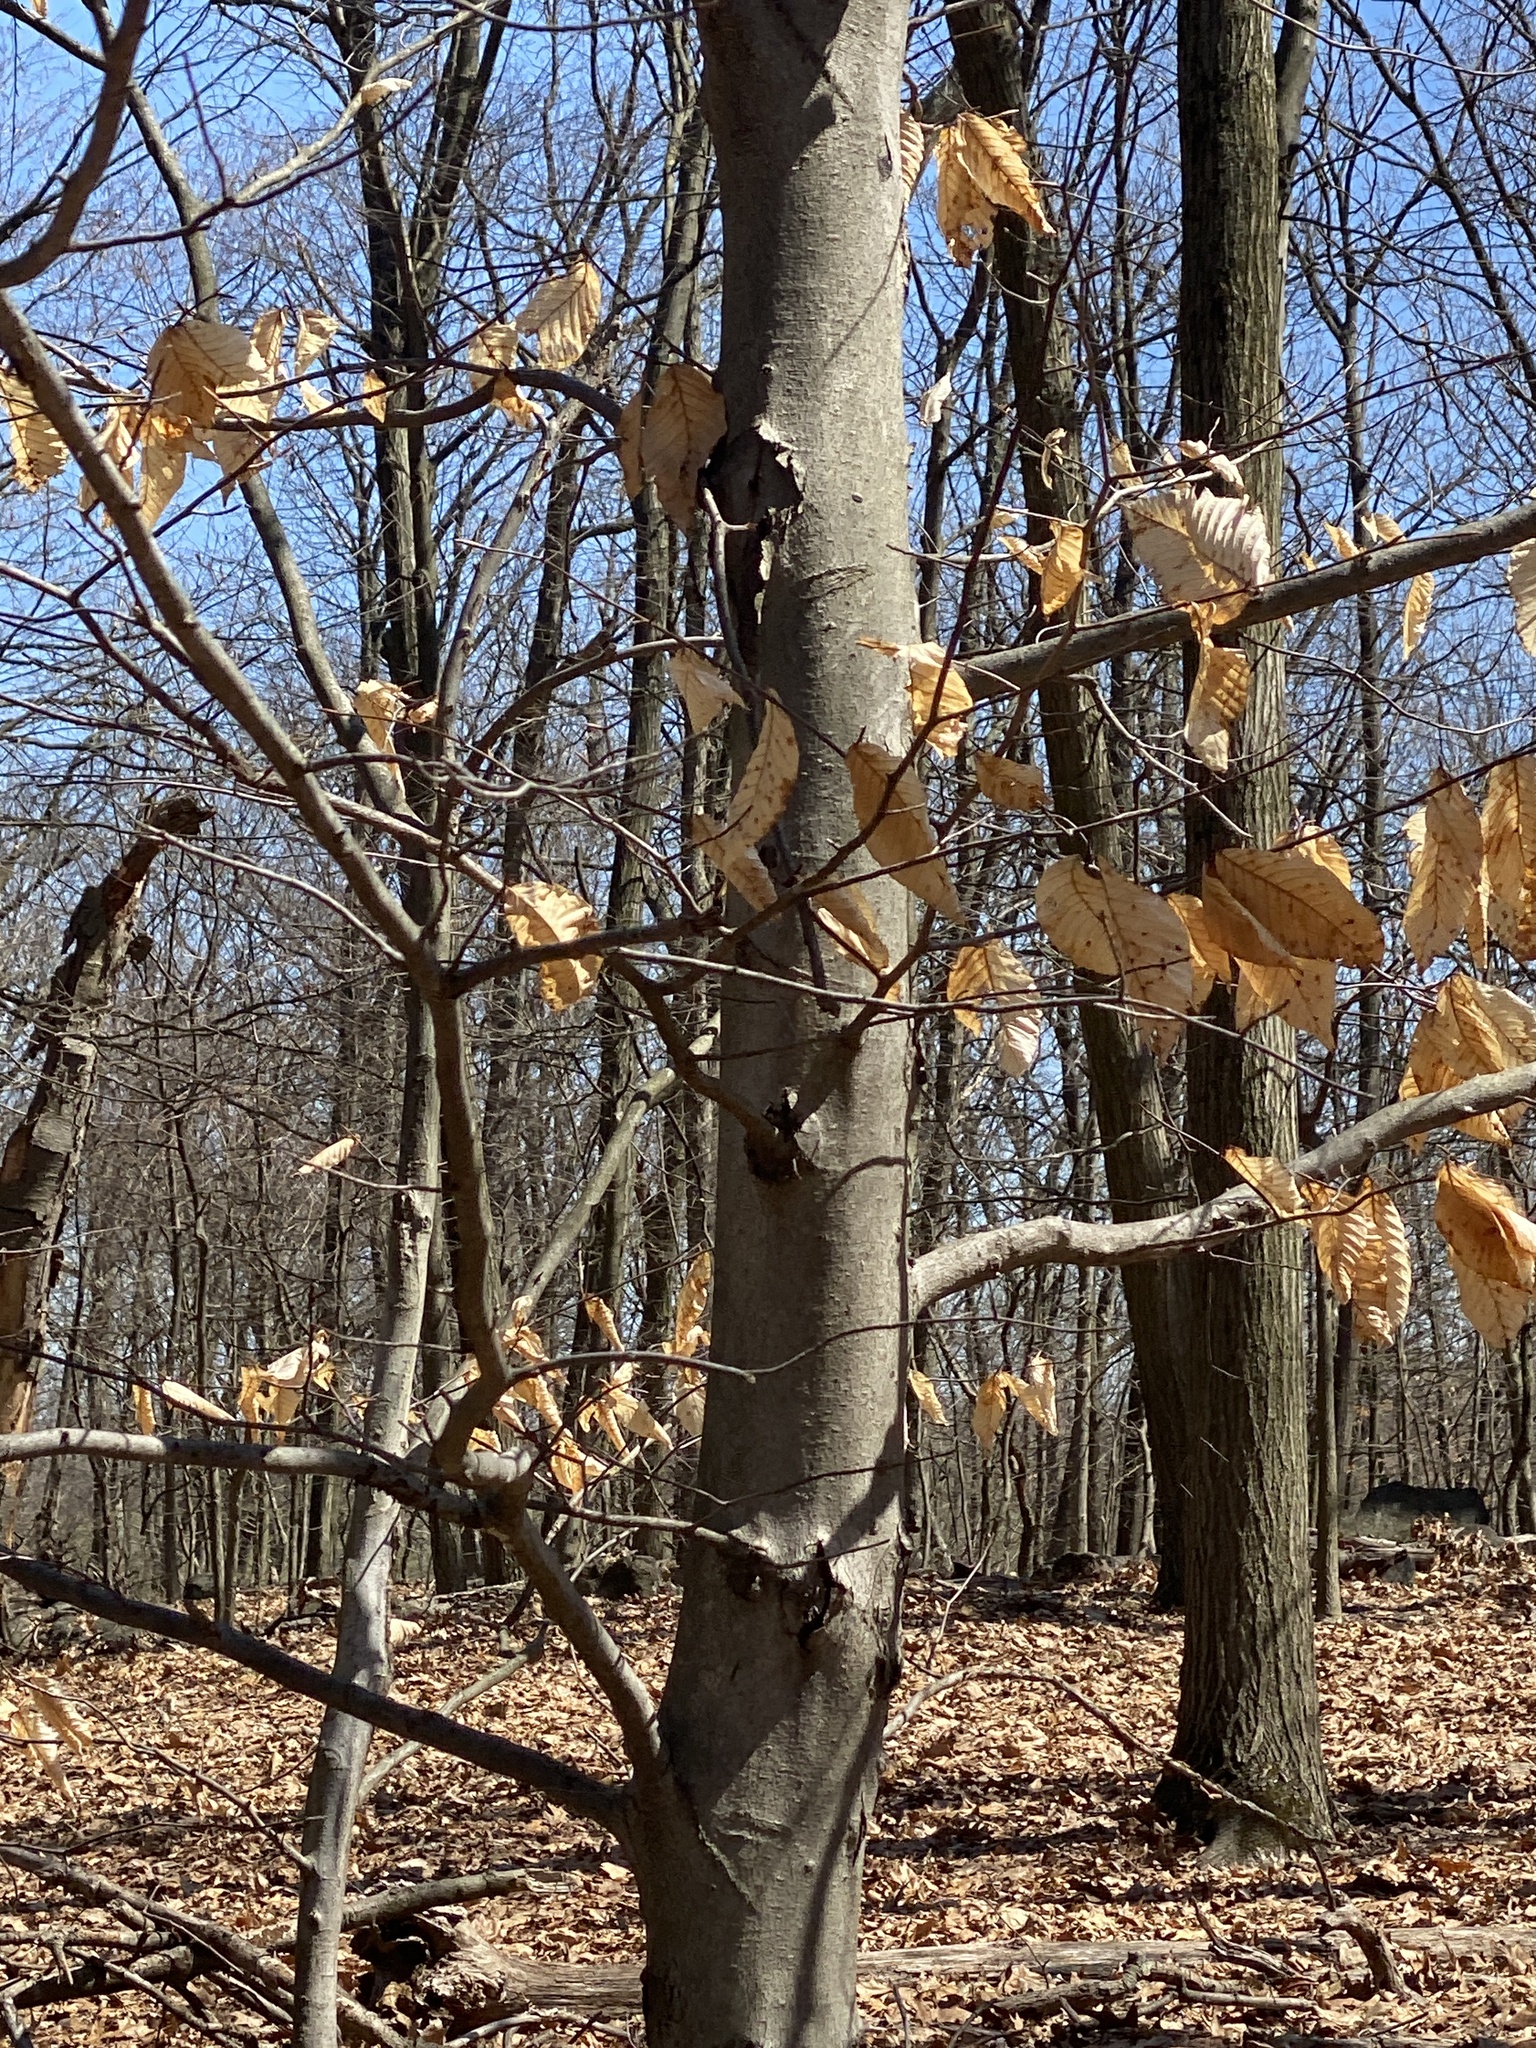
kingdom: Plantae
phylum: Tracheophyta
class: Magnoliopsida
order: Fagales
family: Fagaceae
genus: Fagus
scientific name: Fagus grandifolia
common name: American beech
